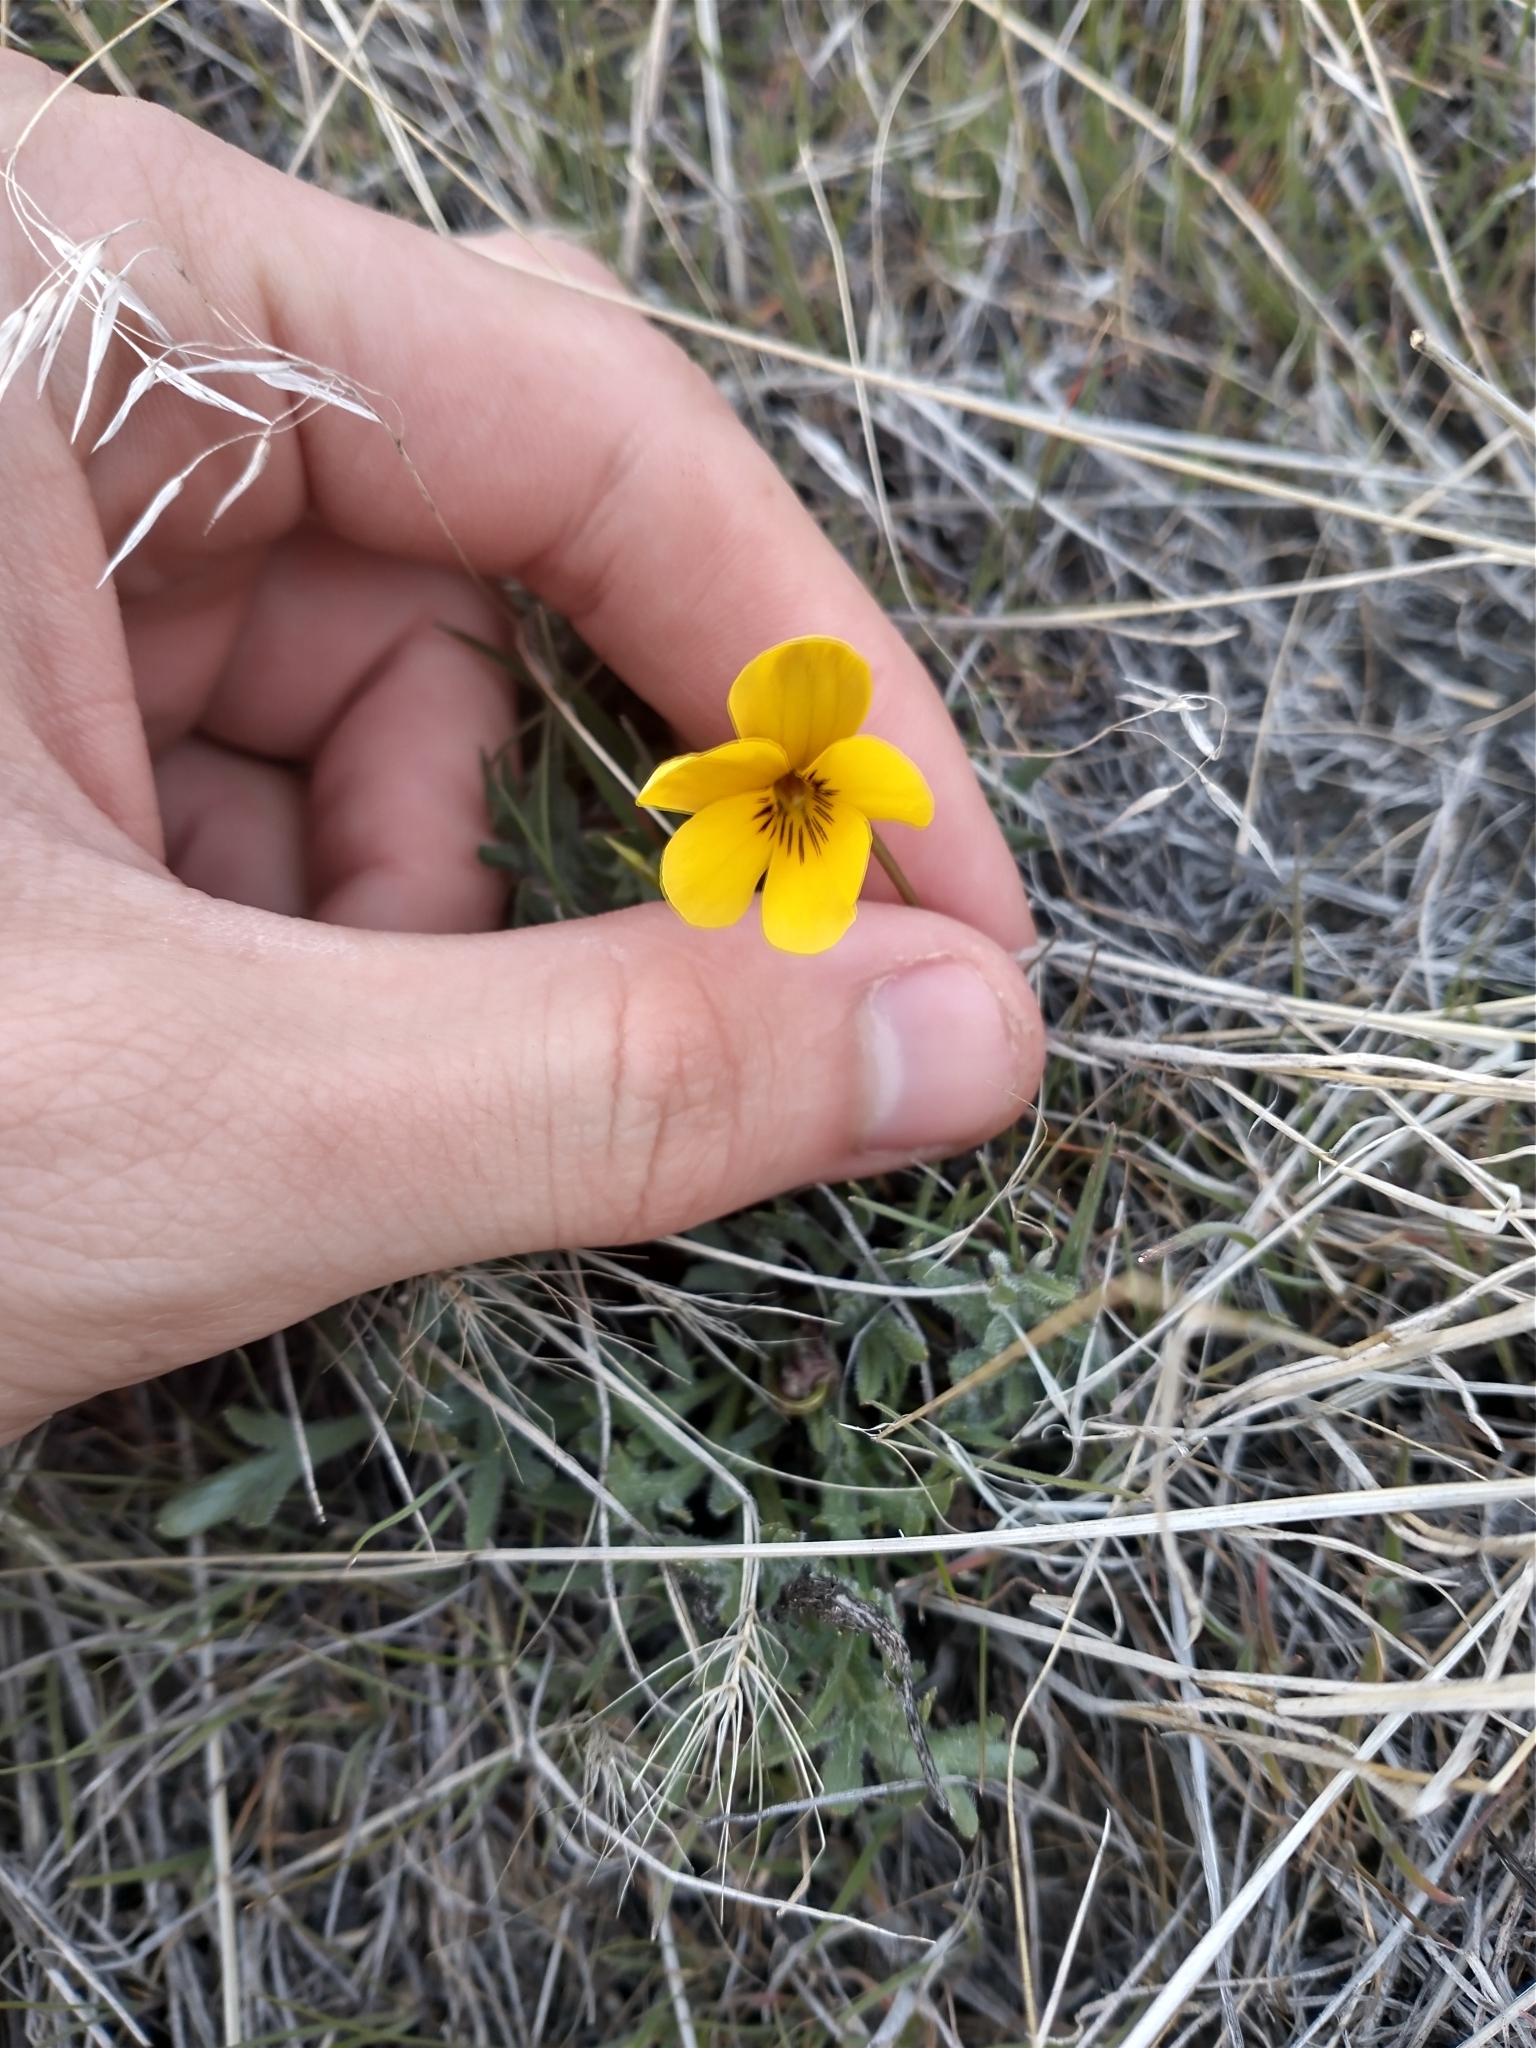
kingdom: Plantae
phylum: Tracheophyta
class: Magnoliopsida
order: Malpighiales
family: Violaceae
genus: Viola
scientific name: Viola douglasii
